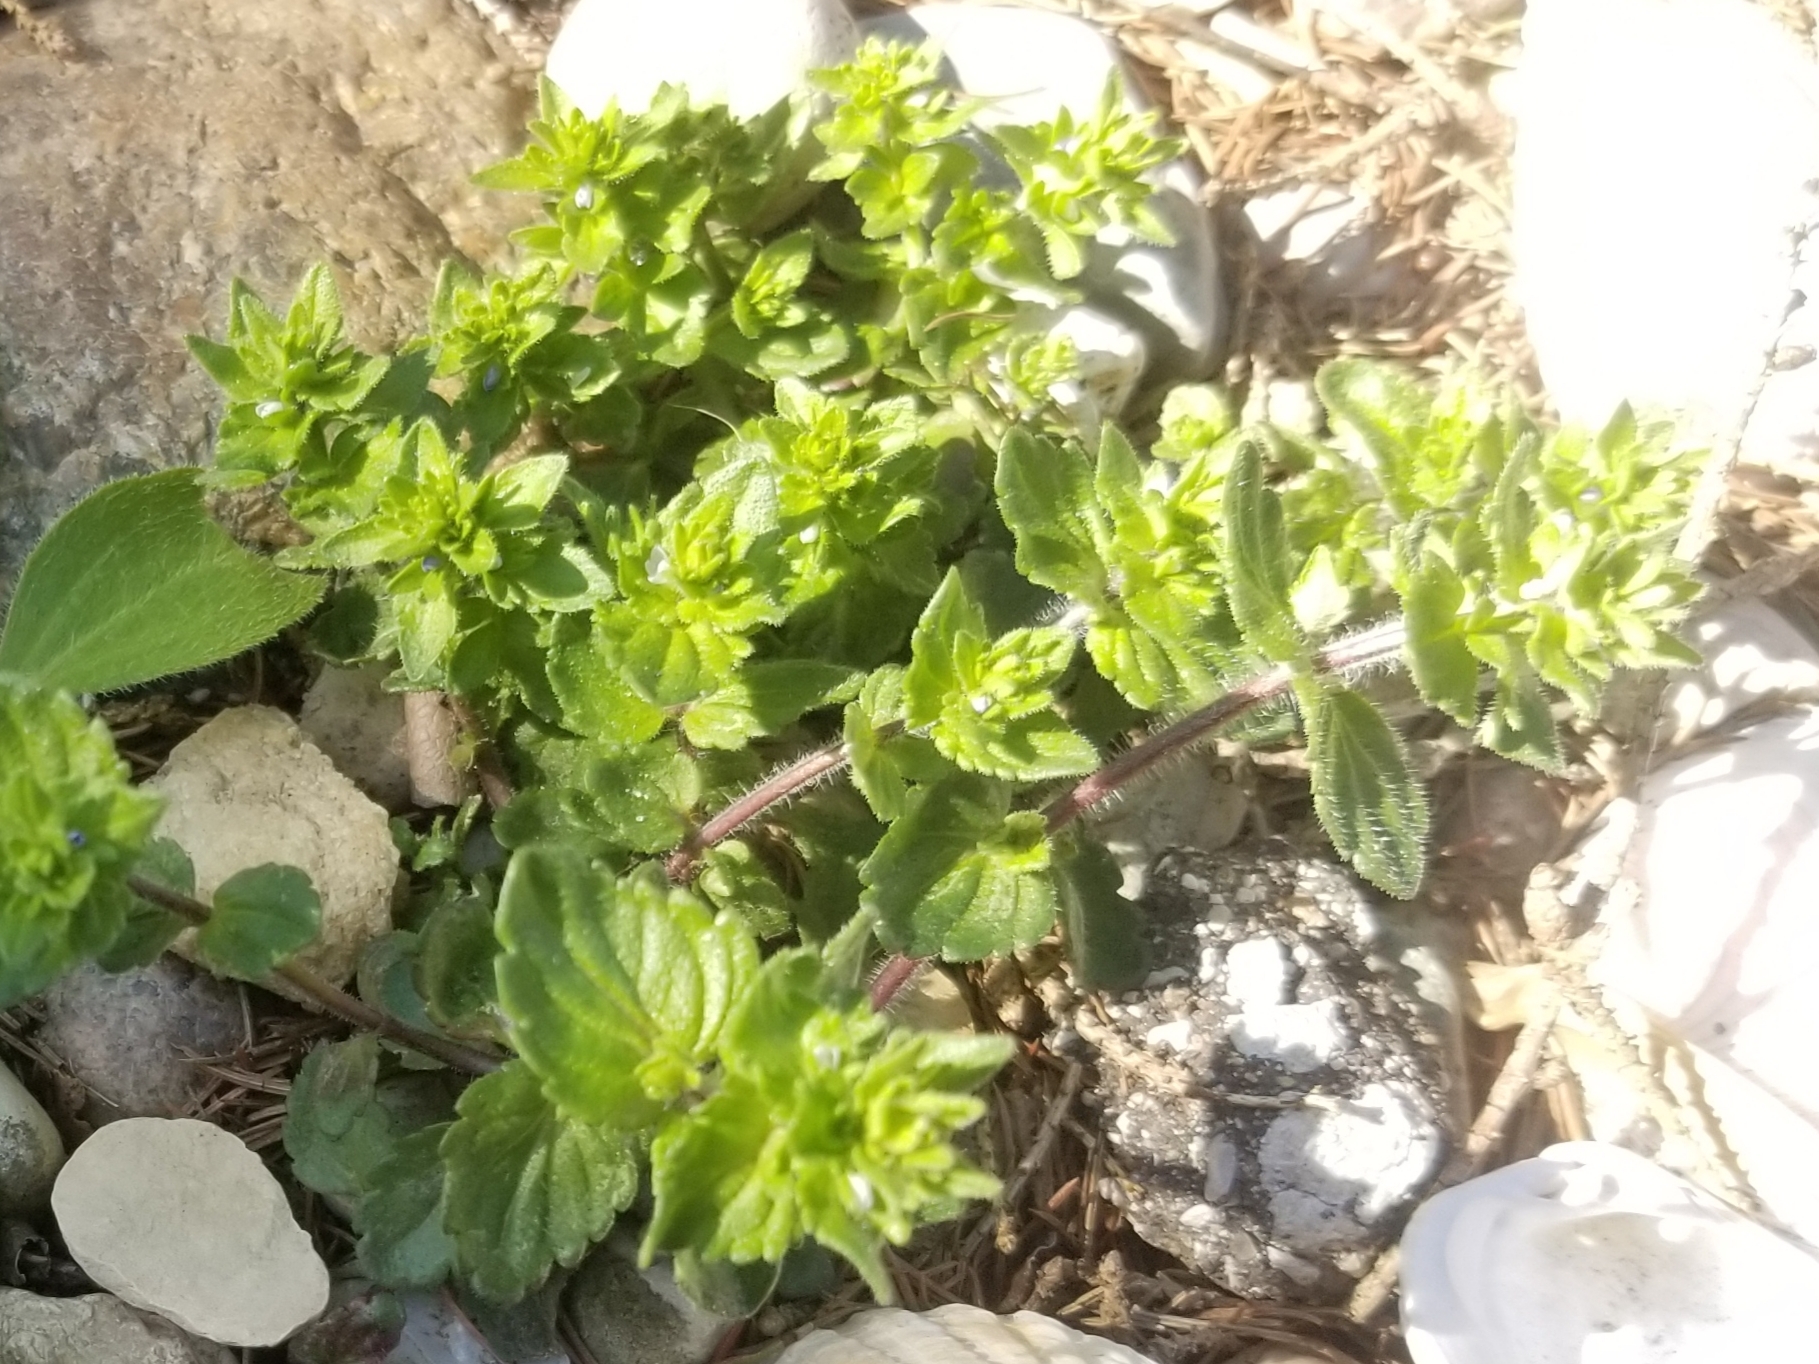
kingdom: Plantae
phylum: Tracheophyta
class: Magnoliopsida
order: Lamiales
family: Plantaginaceae
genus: Veronica
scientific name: Veronica arvensis
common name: Corn speedwell
